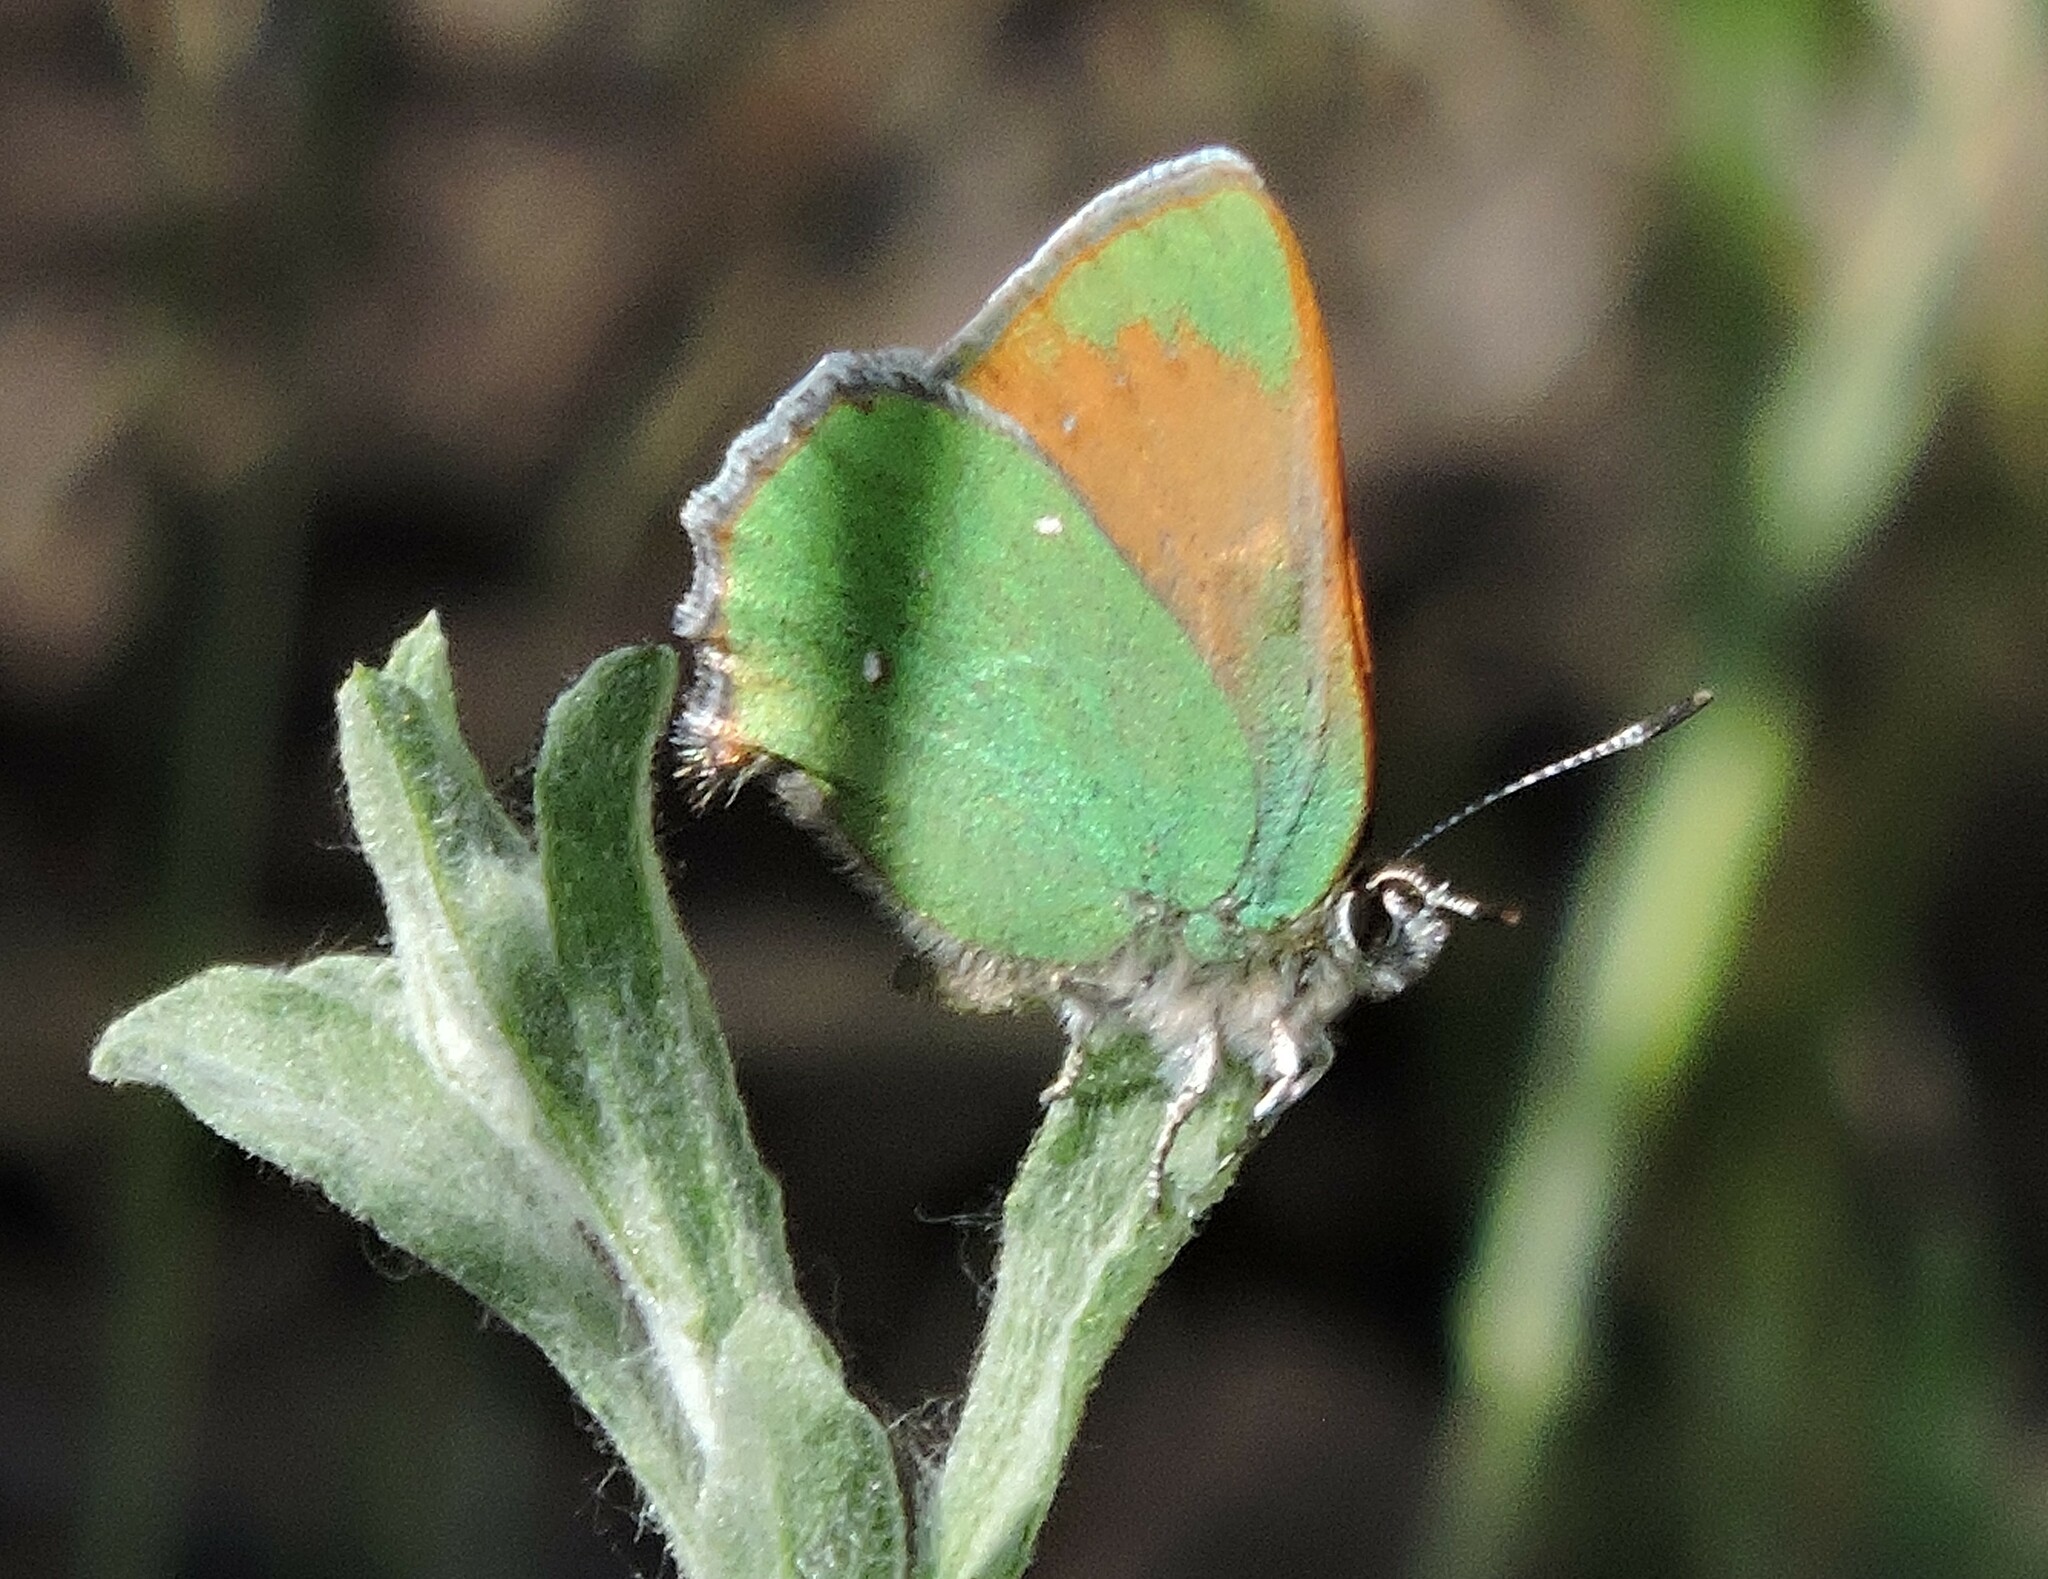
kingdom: Animalia
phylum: Arthropoda
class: Insecta
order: Lepidoptera
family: Lycaenidae
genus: Callophrys
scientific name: Callophrys dumetorum
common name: Bramble hairstreak
